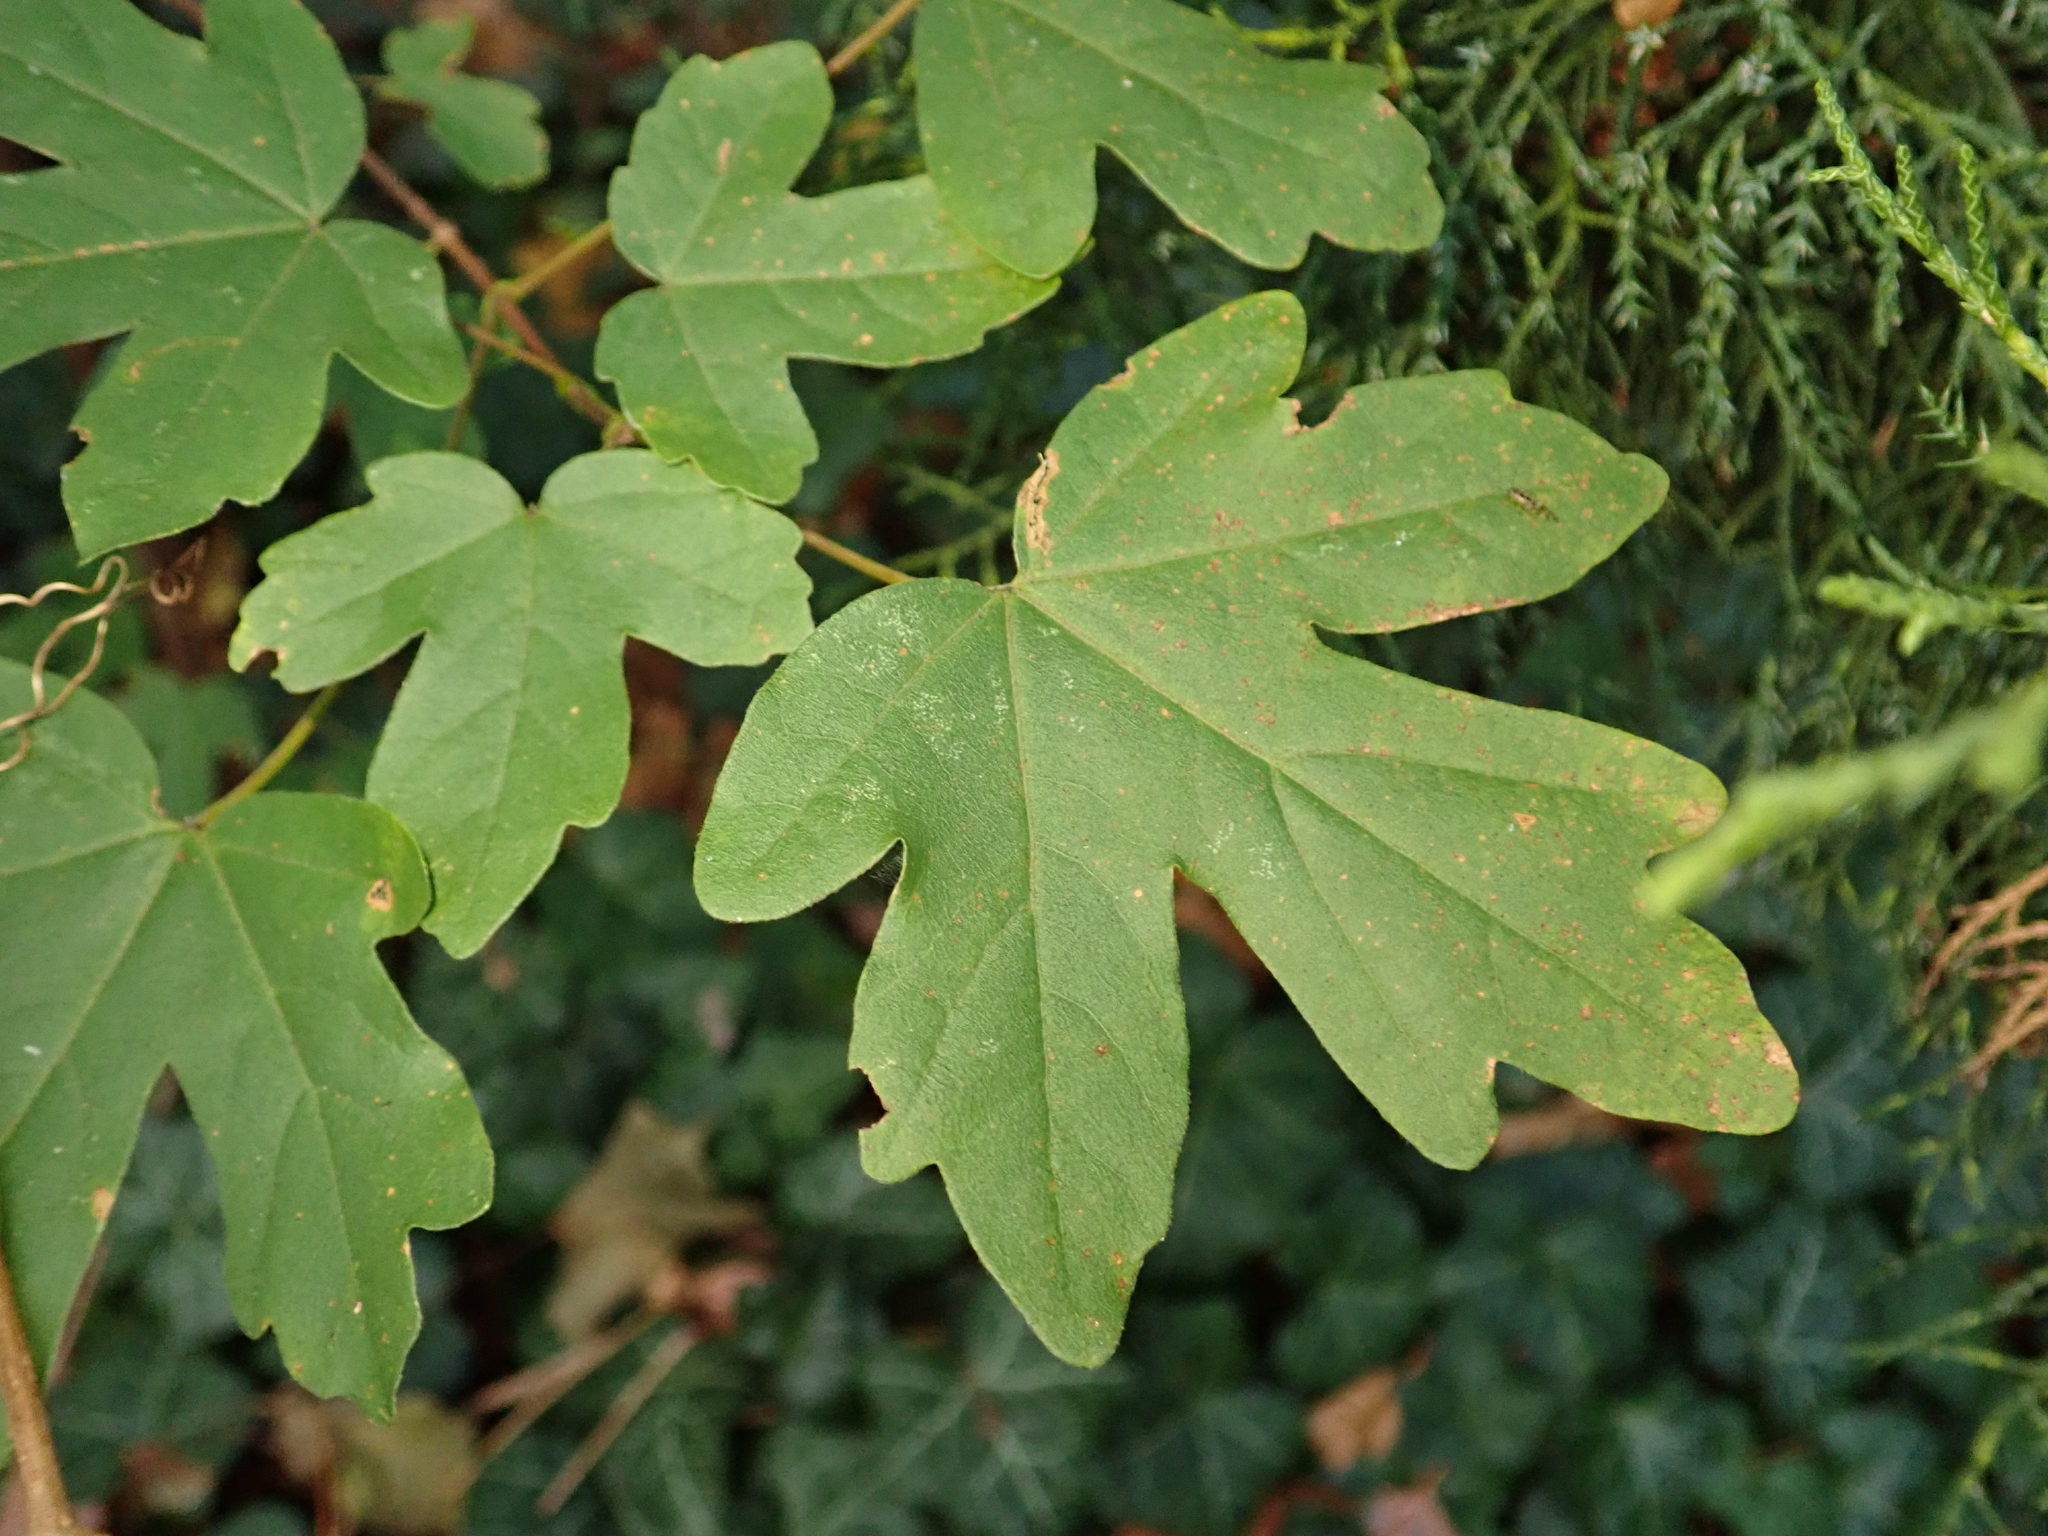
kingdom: Plantae
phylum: Tracheophyta
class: Magnoliopsida
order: Sapindales
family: Sapindaceae
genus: Acer
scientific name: Acer campestre
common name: Field maple
